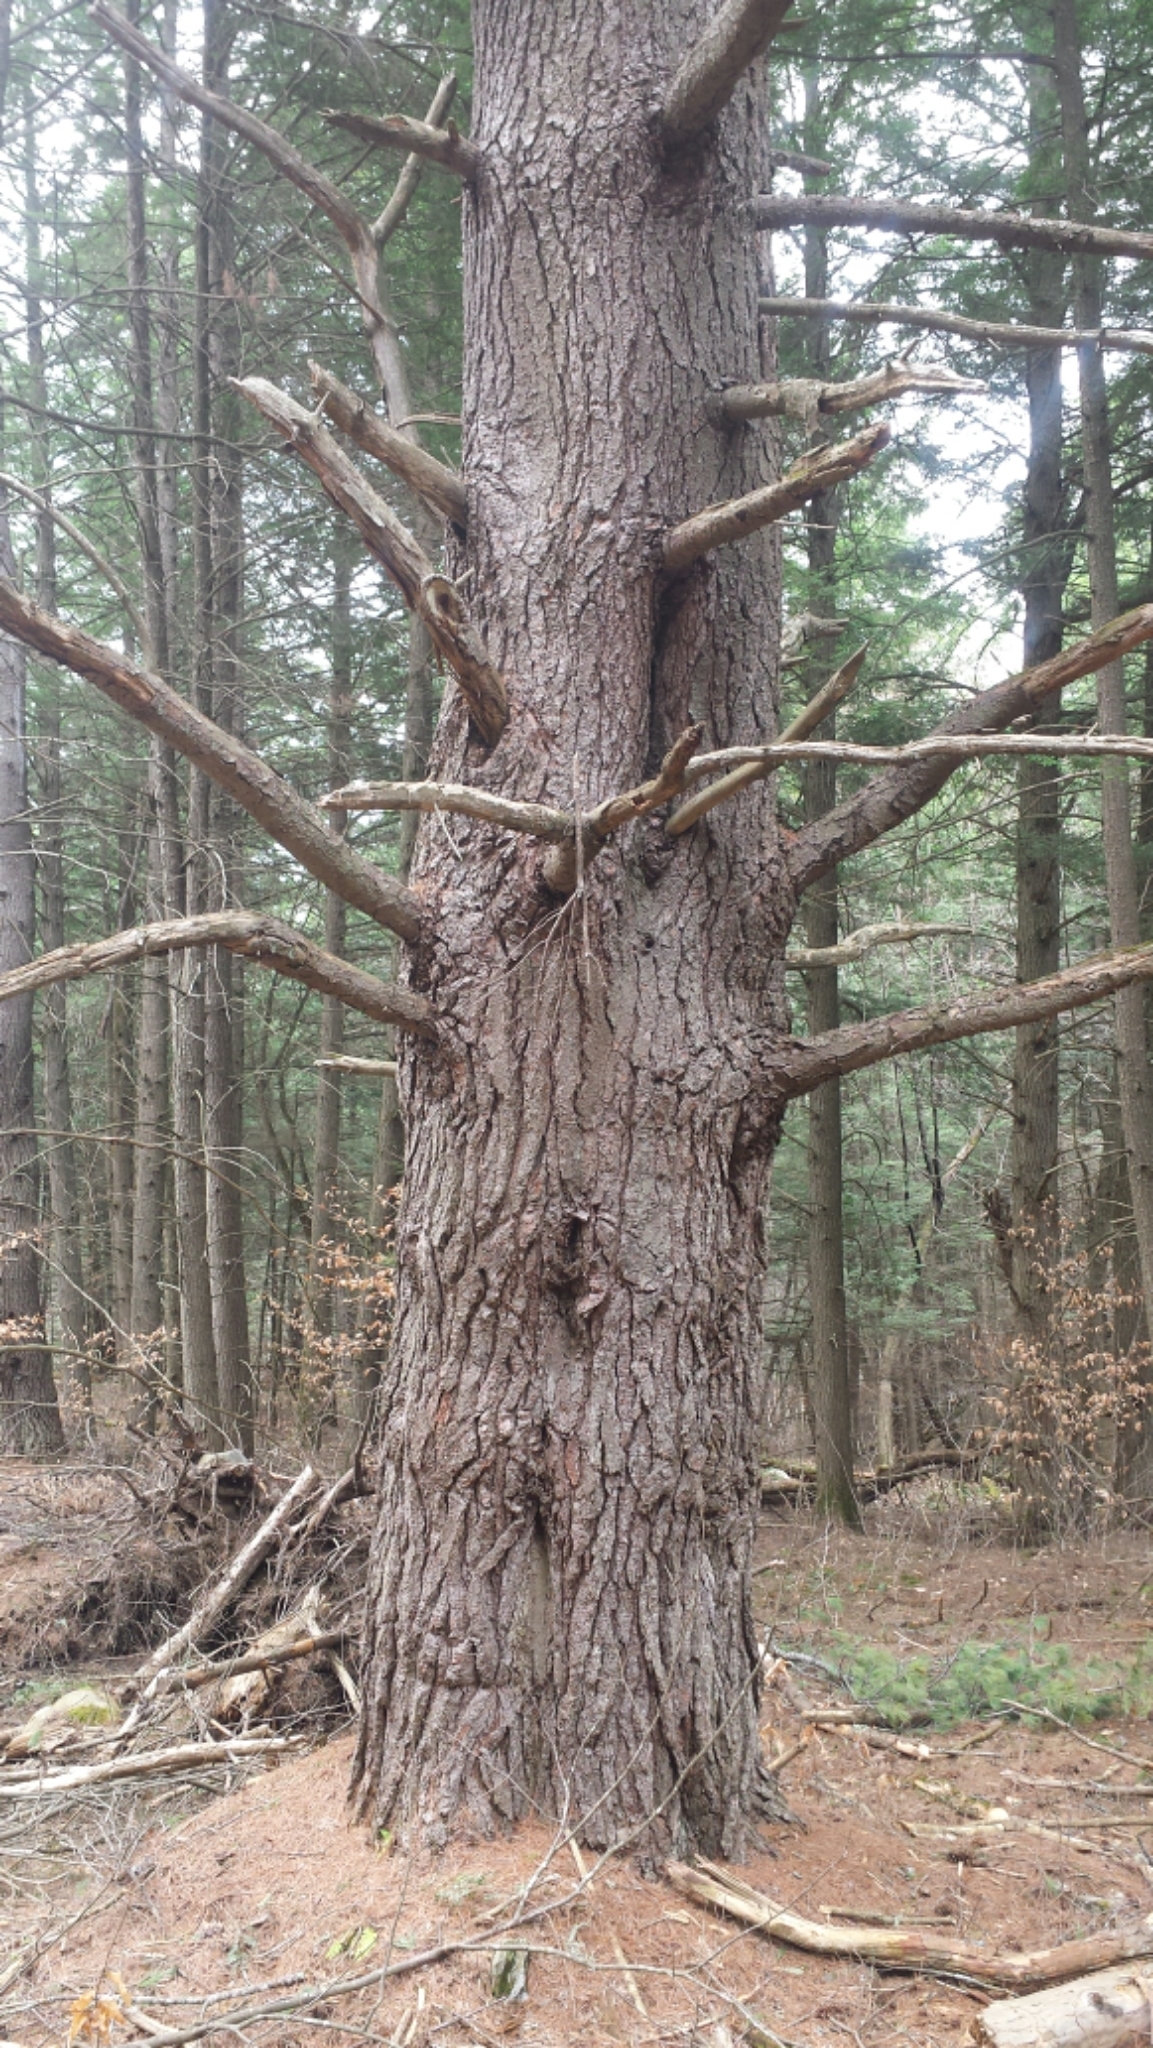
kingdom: Plantae
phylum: Tracheophyta
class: Pinopsida
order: Pinales
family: Pinaceae
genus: Pinus
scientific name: Pinus strobus
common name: Weymouth pine
